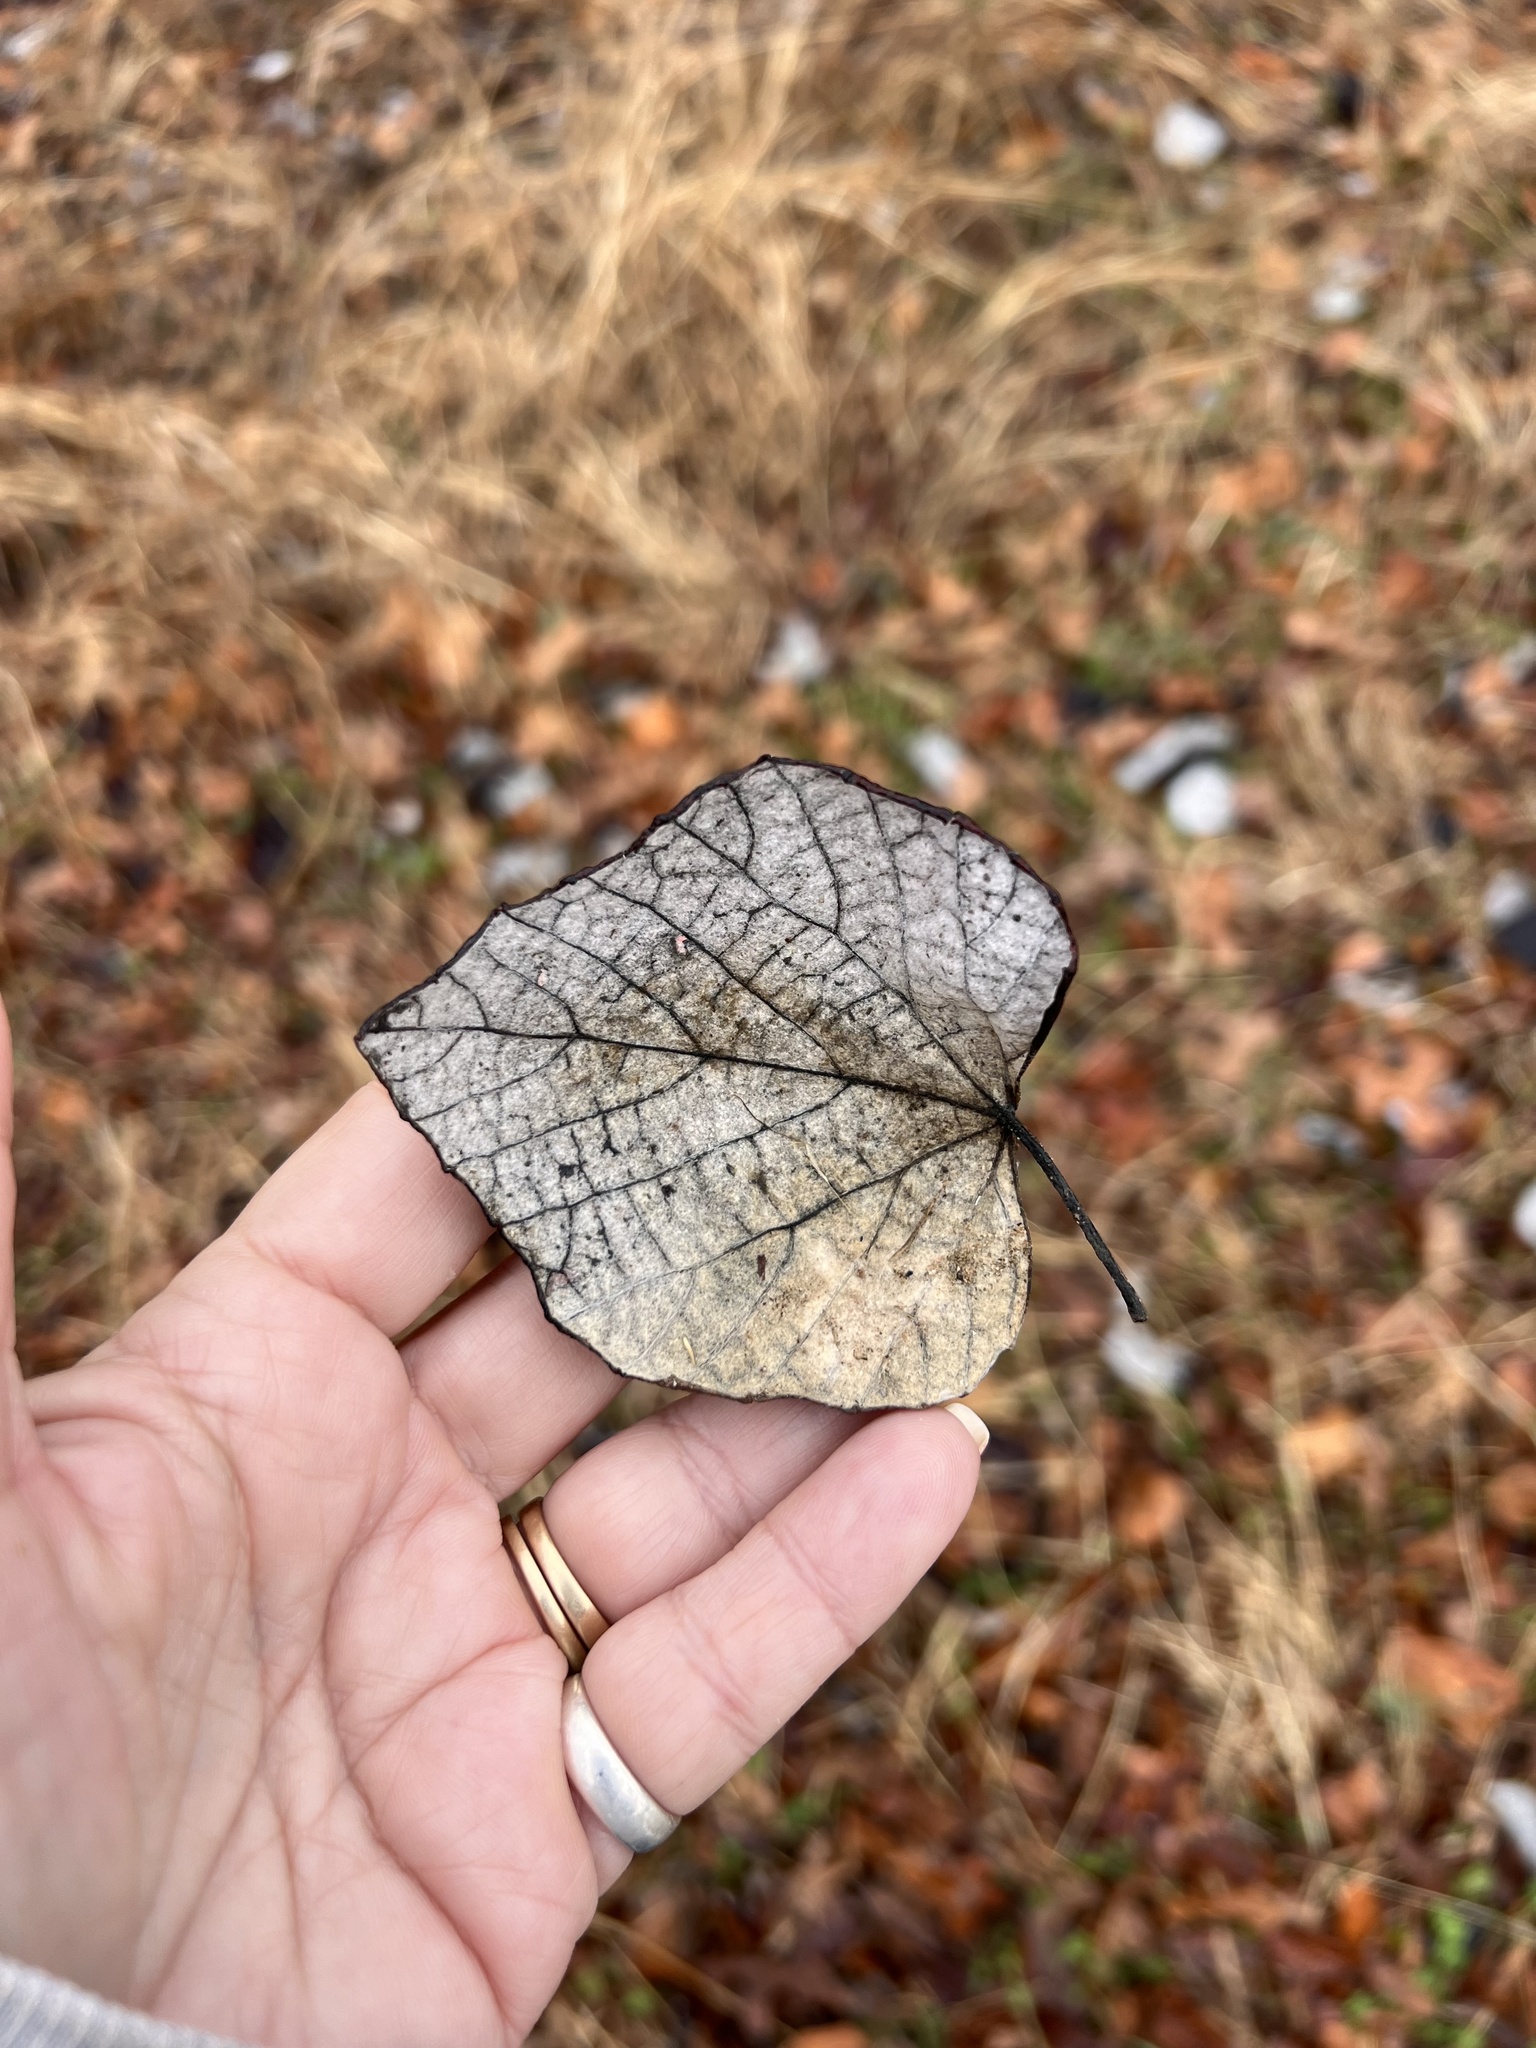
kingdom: Plantae
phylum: Tracheophyta
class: Magnoliopsida
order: Vitales
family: Vitaceae
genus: Vitis
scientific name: Vitis mustangensis
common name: Mustang grape
